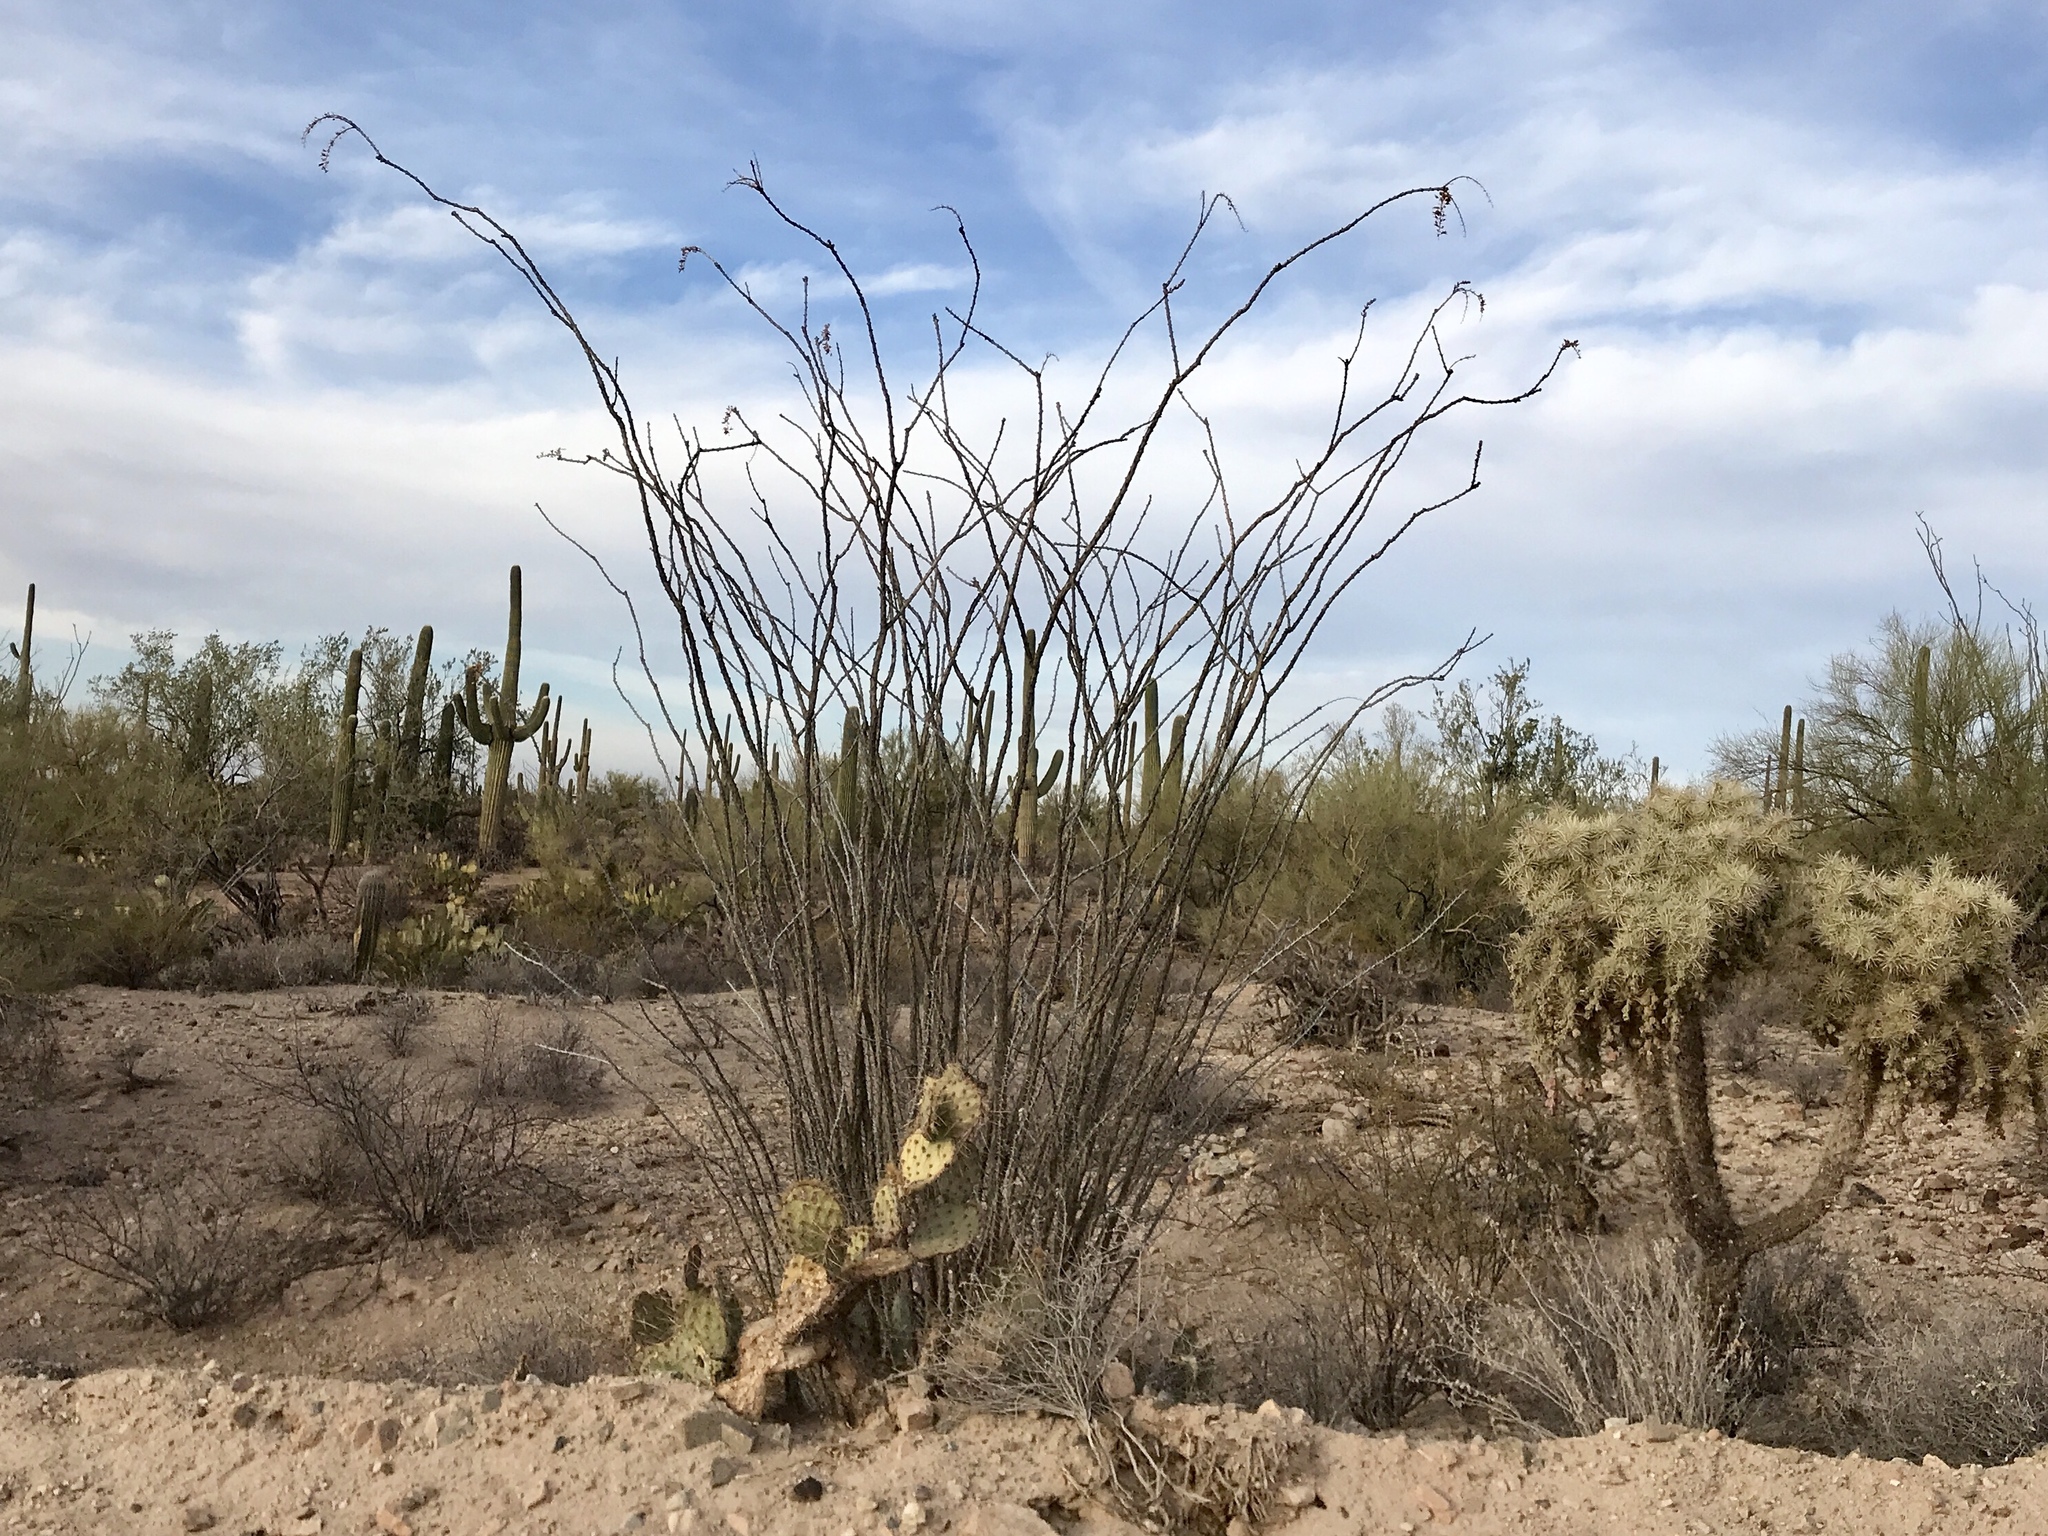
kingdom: Plantae
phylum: Tracheophyta
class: Magnoliopsida
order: Ericales
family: Fouquieriaceae
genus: Fouquieria
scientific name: Fouquieria splendens
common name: Vine-cactus
